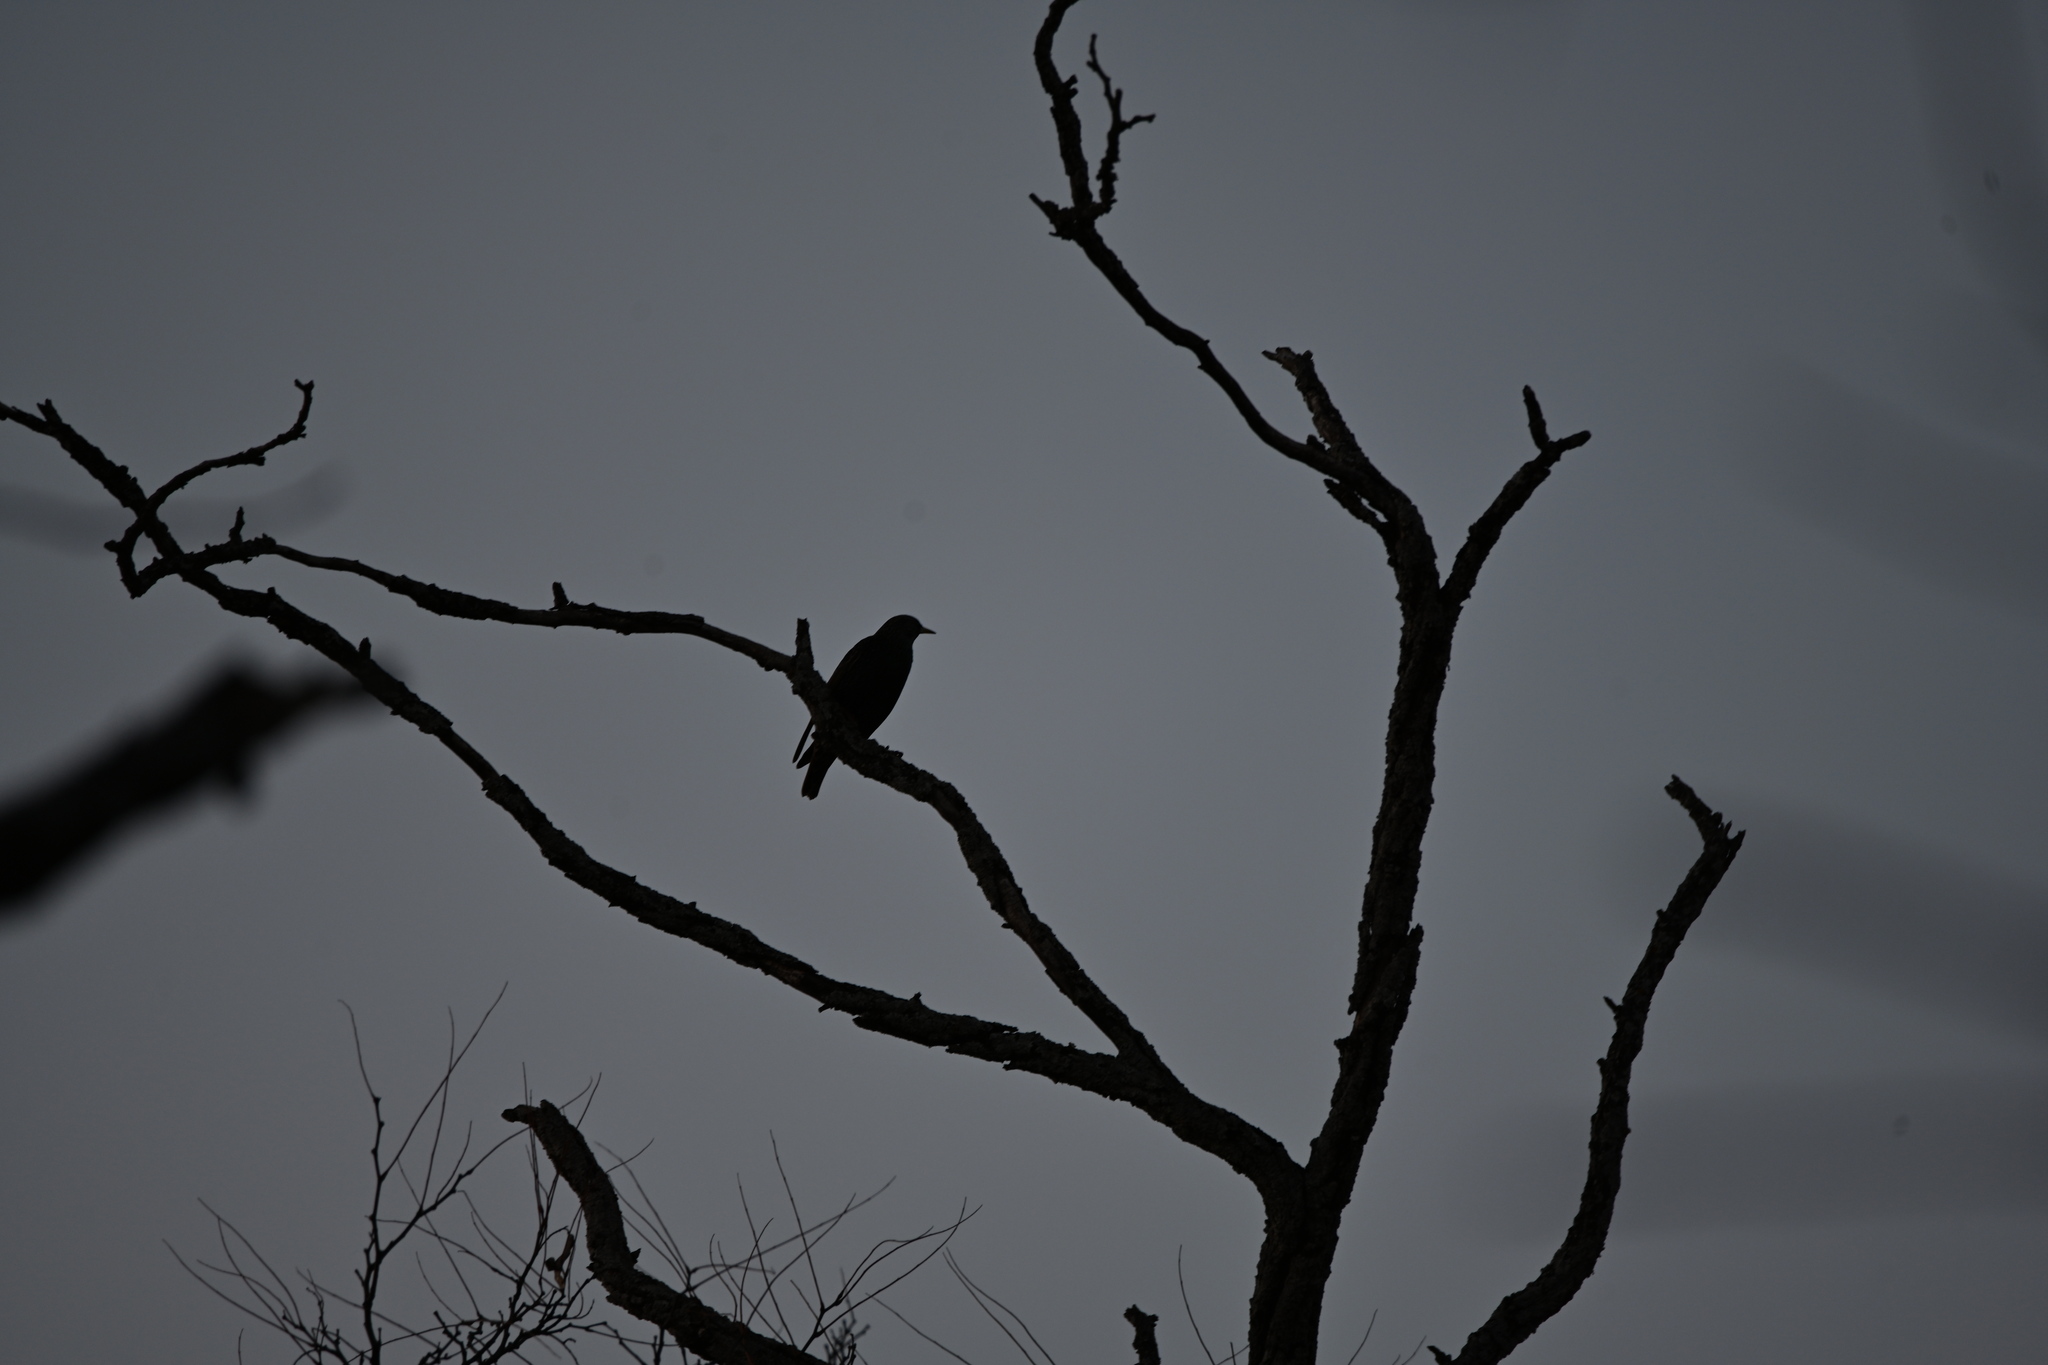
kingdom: Animalia
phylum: Chordata
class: Aves
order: Passeriformes
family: Sturnidae
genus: Sturnus
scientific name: Sturnus vulgaris
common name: Common starling
